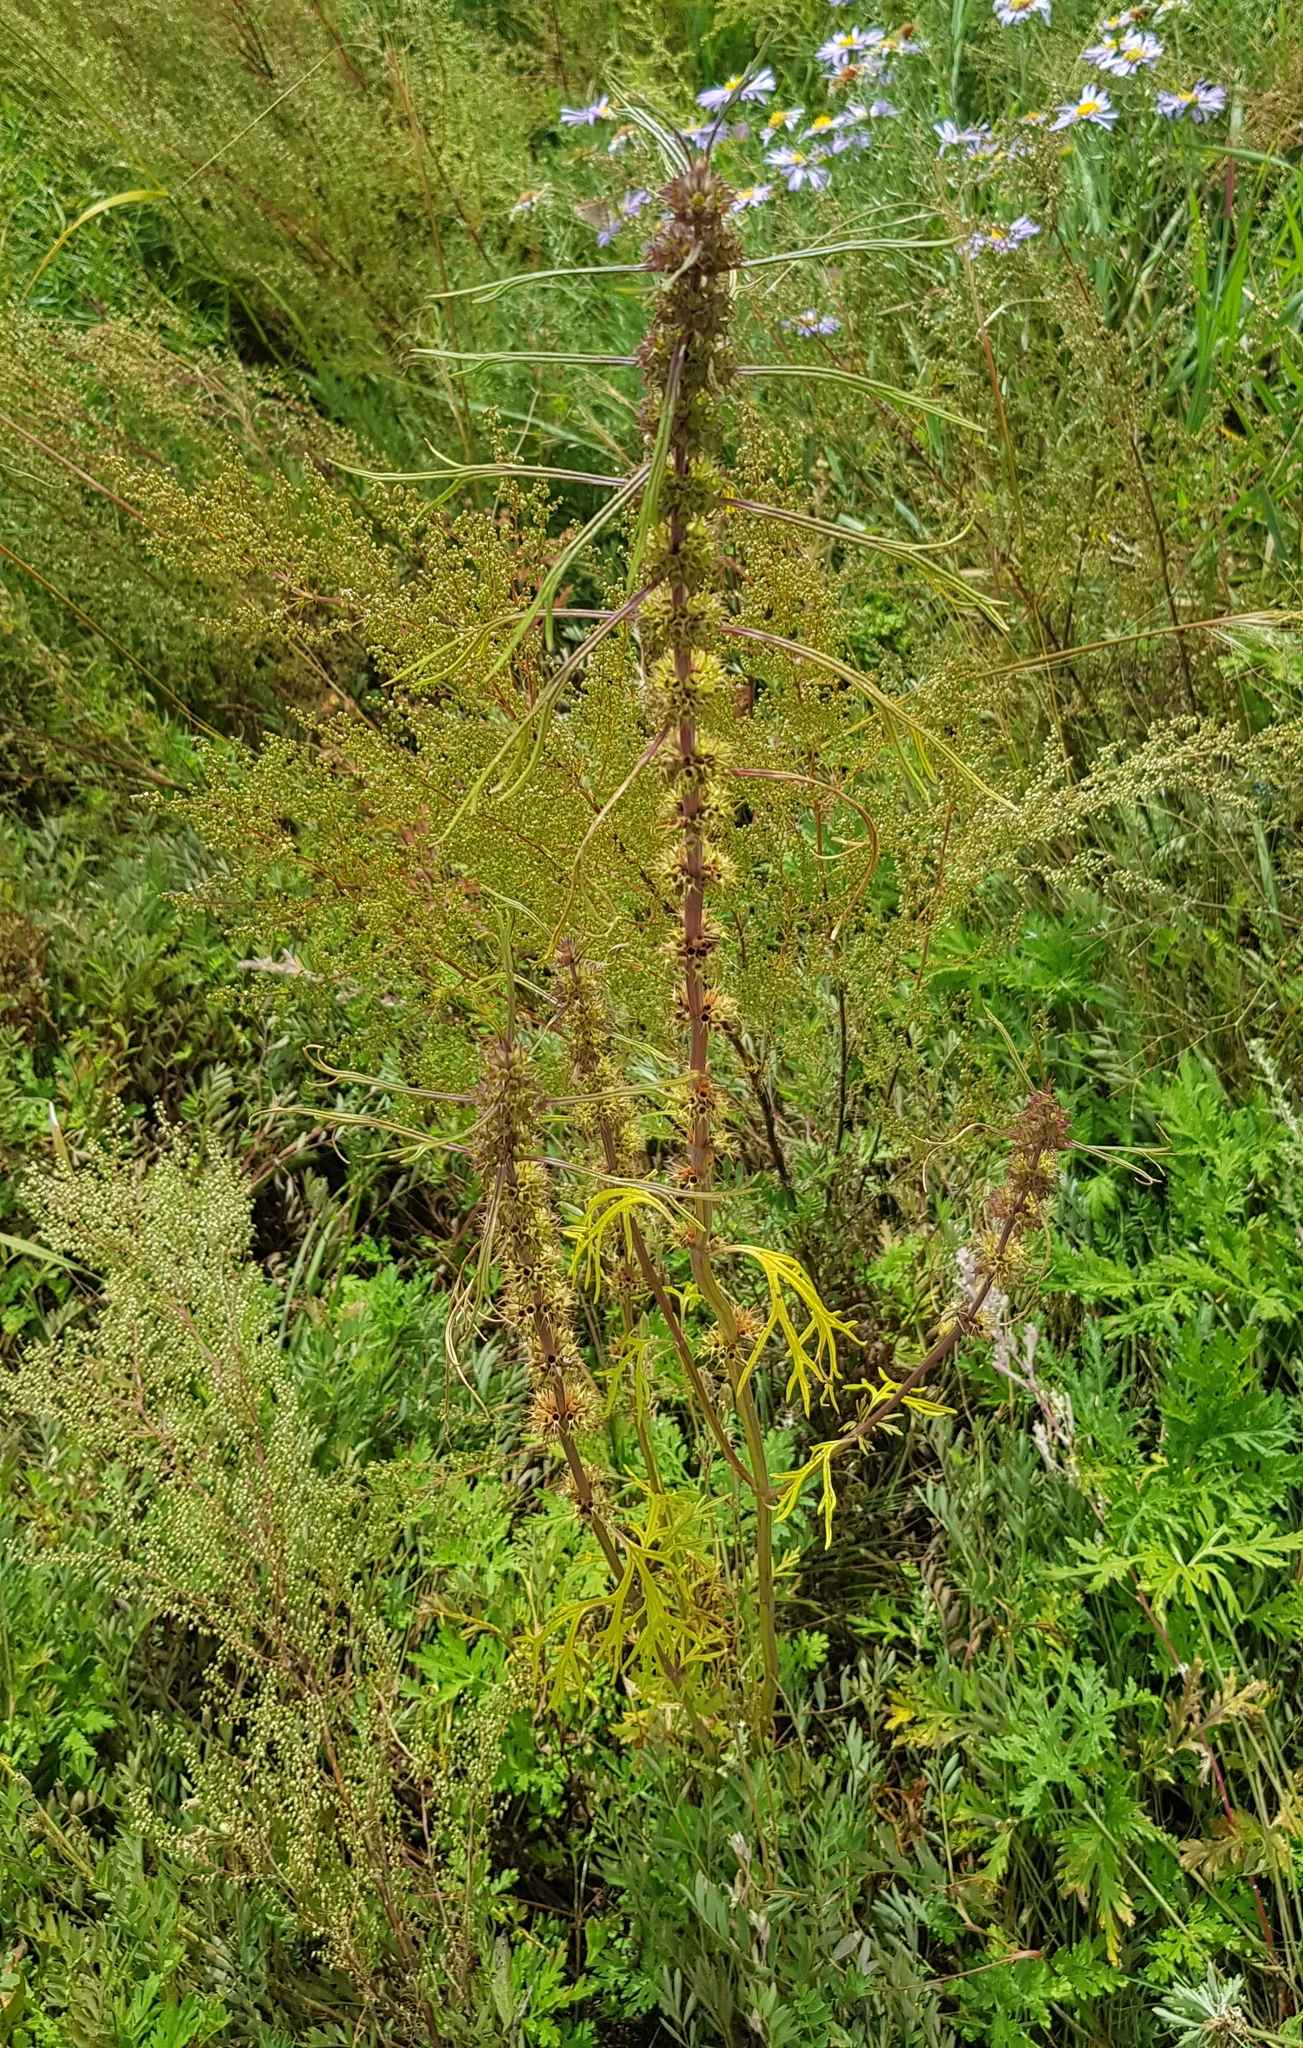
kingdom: Plantae
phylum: Tracheophyta
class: Magnoliopsida
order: Lamiales
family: Lamiaceae
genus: Leonurus
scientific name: Leonurus sibiricus
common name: Honeyweed
